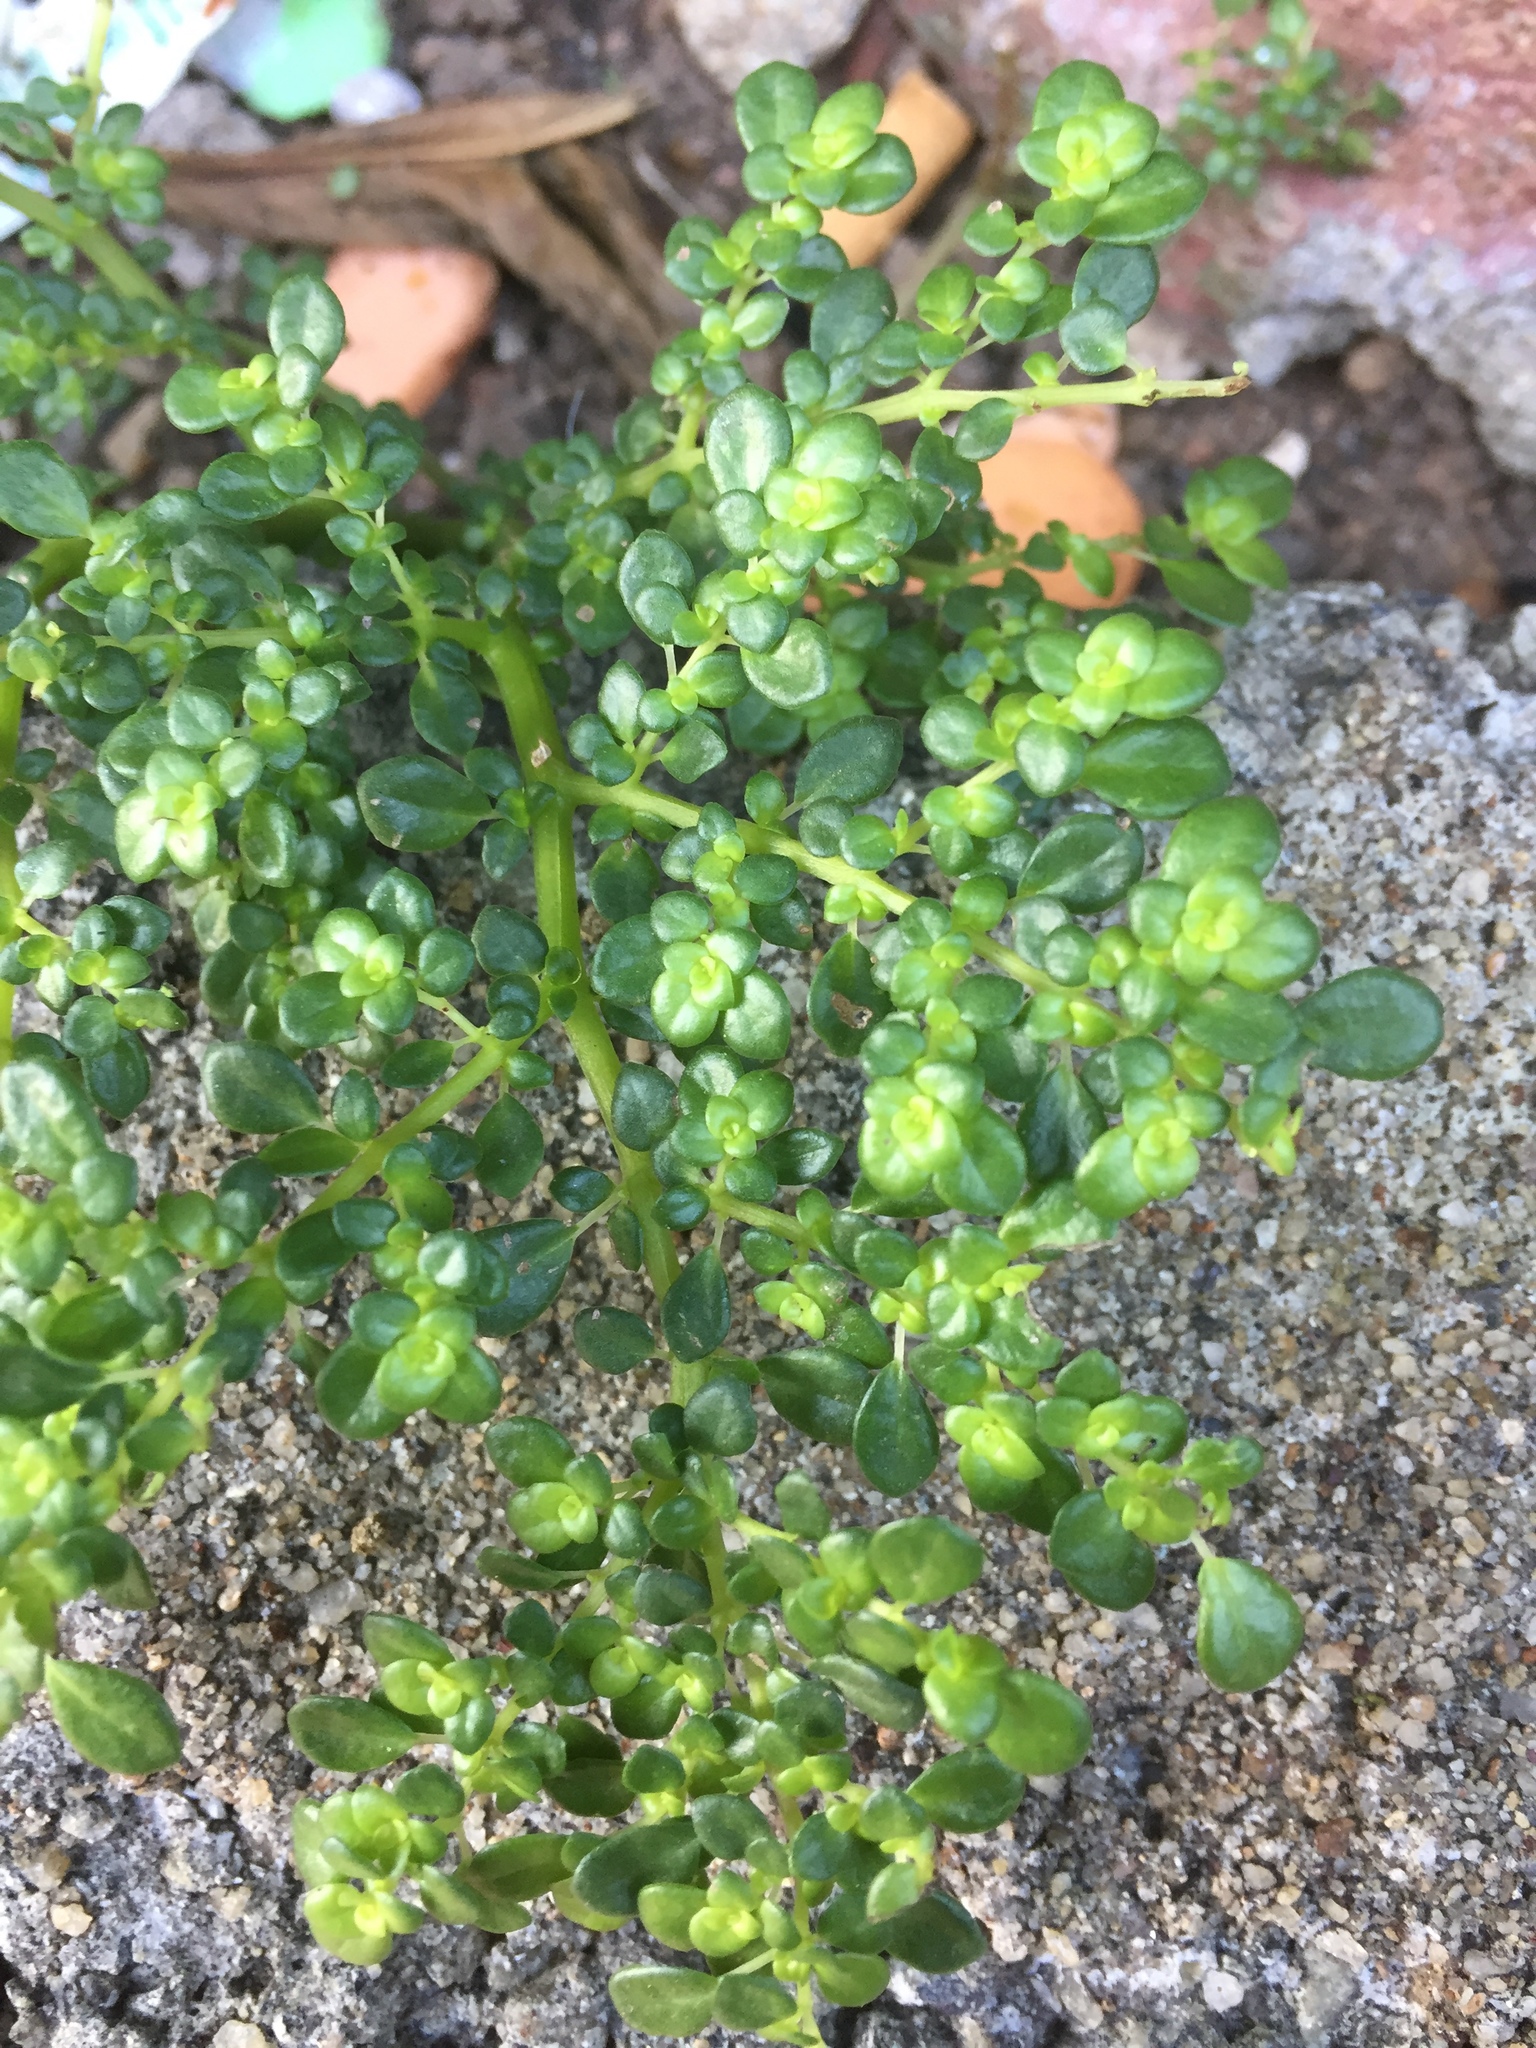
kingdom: Plantae
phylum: Tracheophyta
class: Magnoliopsida
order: Rosales
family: Urticaceae
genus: Pilea
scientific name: Pilea microphylla
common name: Artillery-plant
